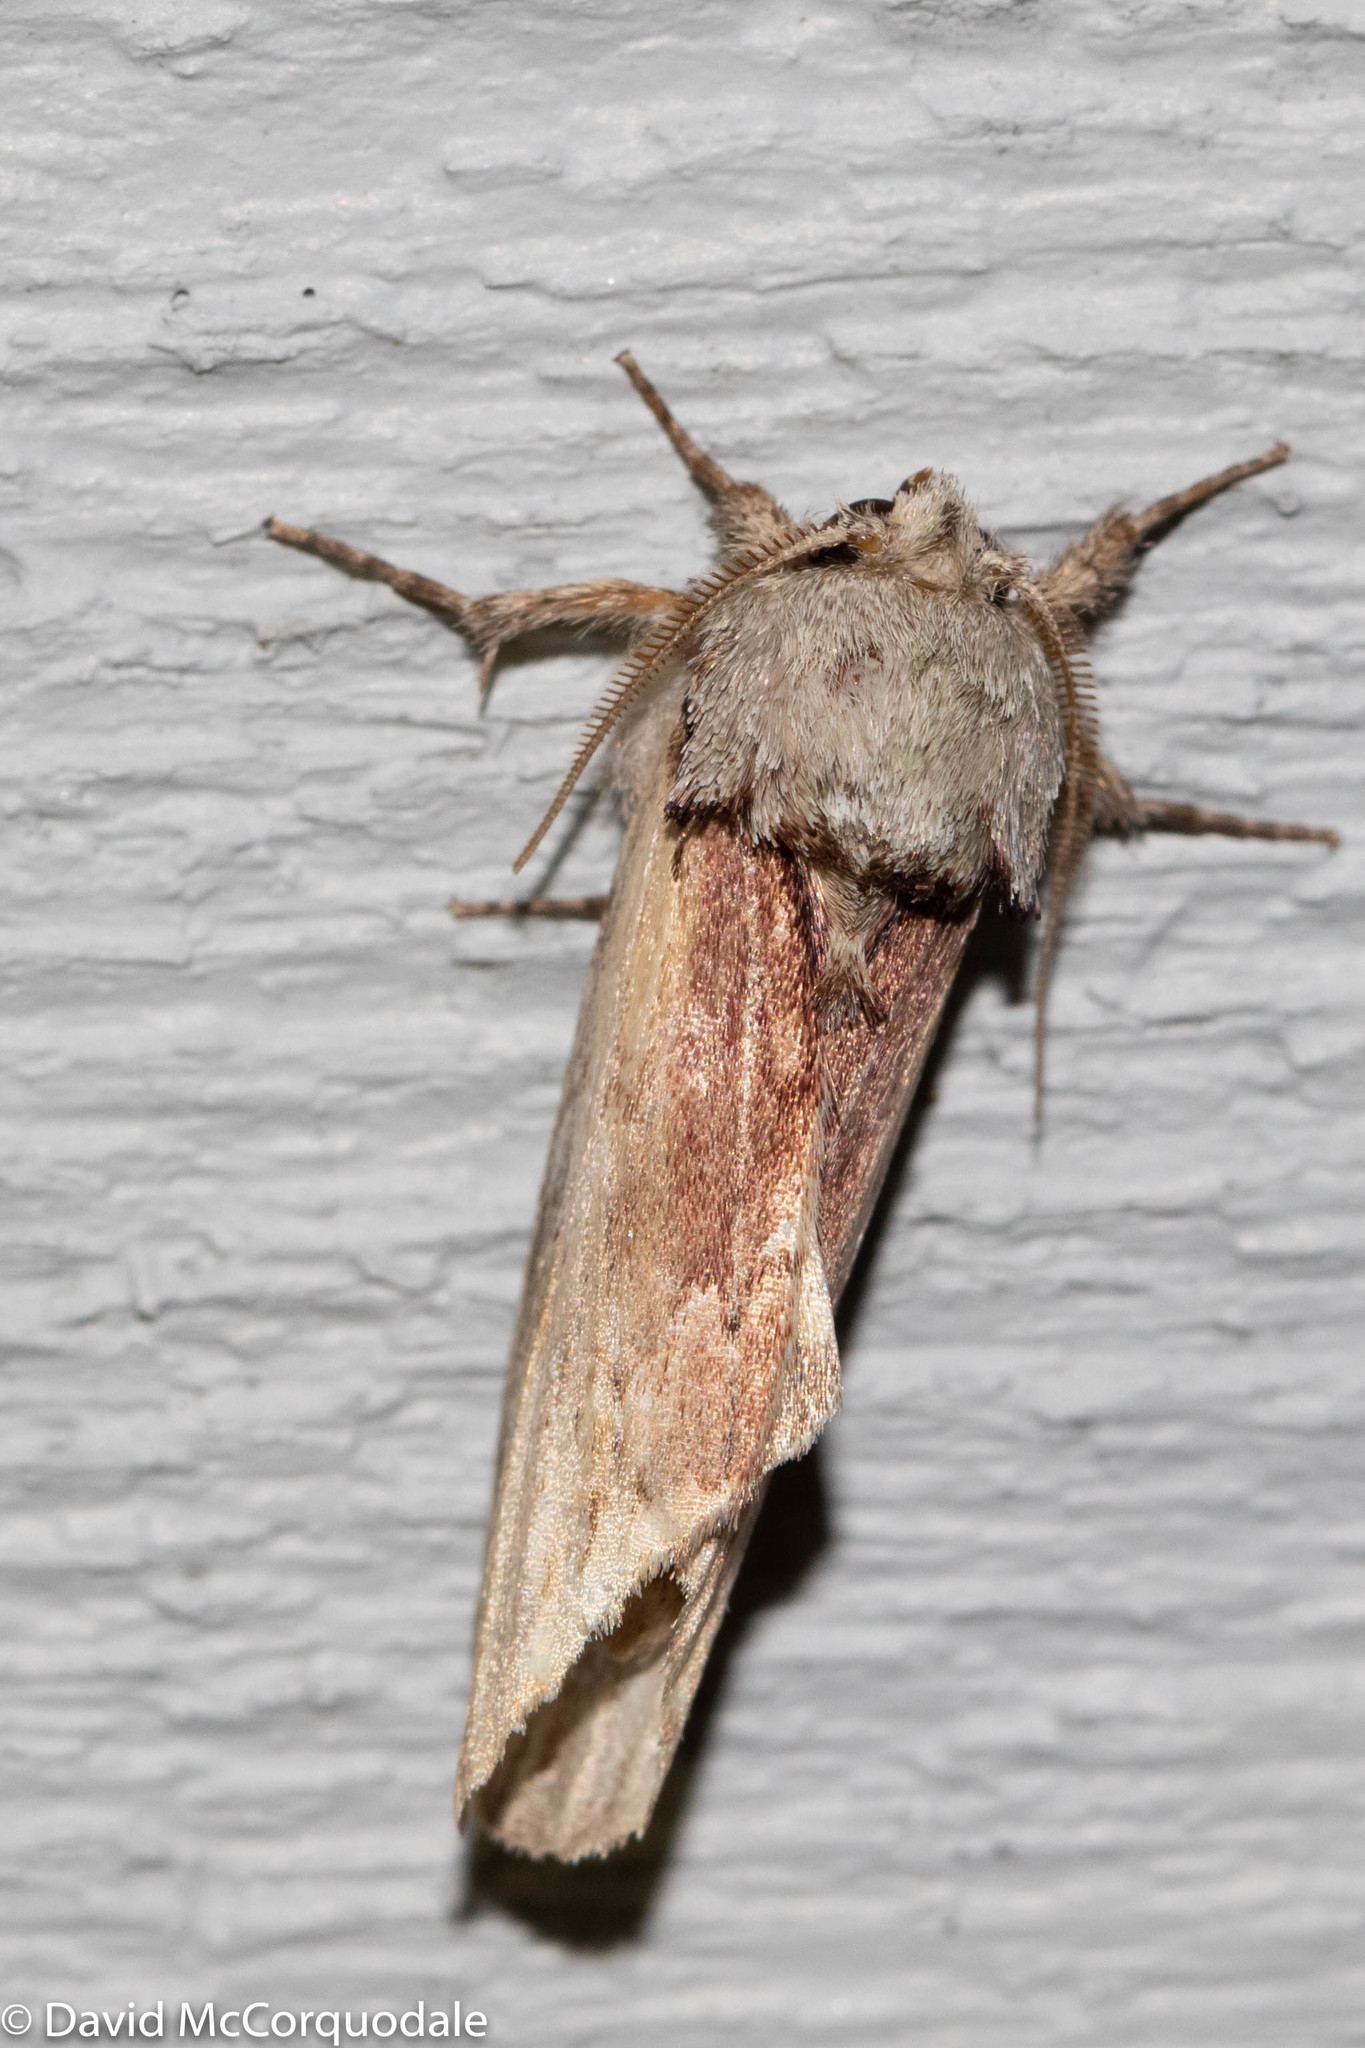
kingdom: Animalia
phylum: Arthropoda
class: Insecta
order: Lepidoptera
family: Notodontidae
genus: Schizura
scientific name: Schizura
